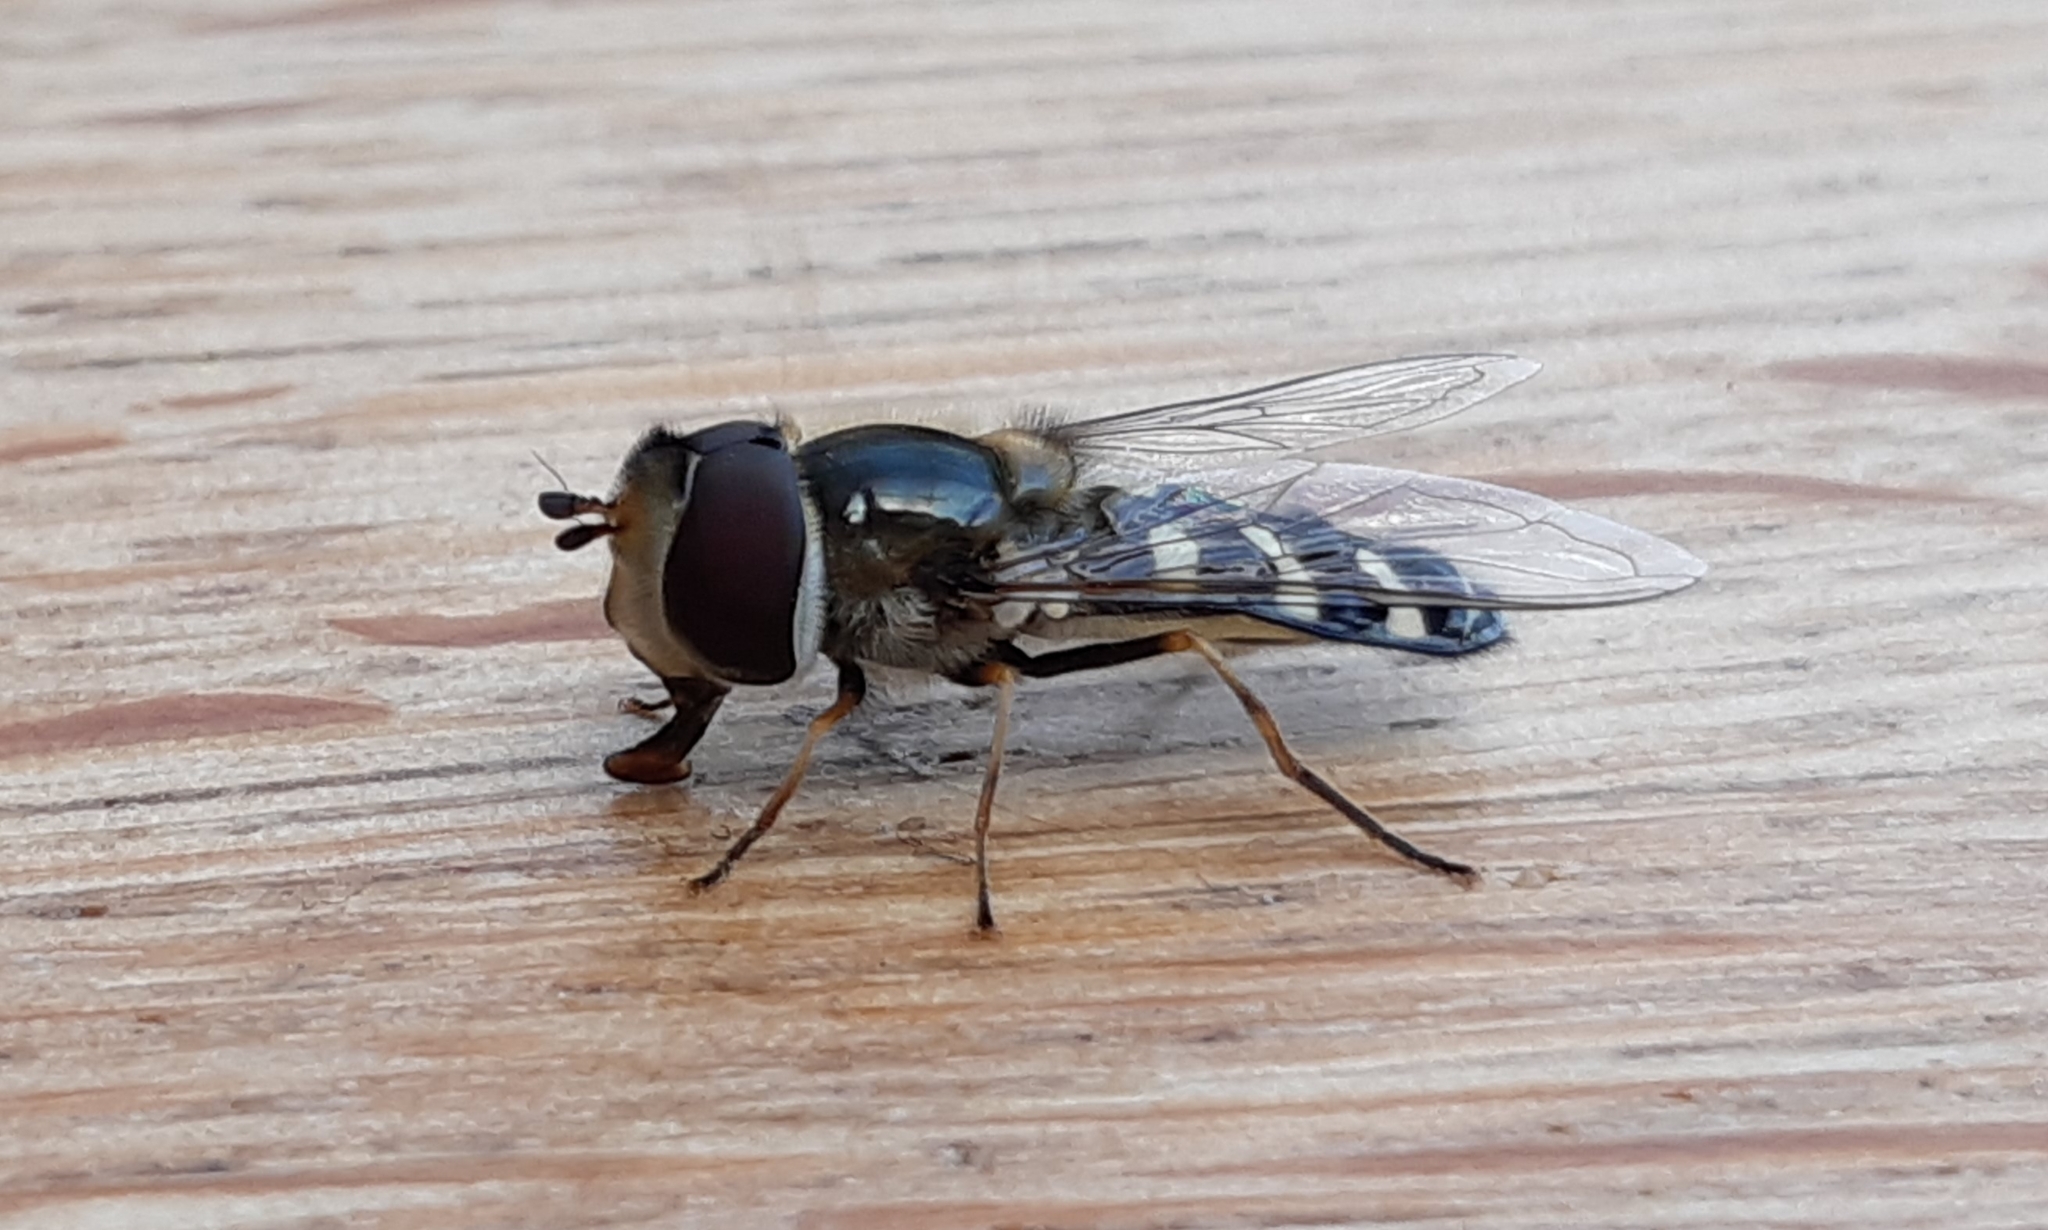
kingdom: Animalia
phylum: Arthropoda
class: Insecta
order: Diptera
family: Syrphidae
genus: Scaeva
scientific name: Scaeva pyrastri
